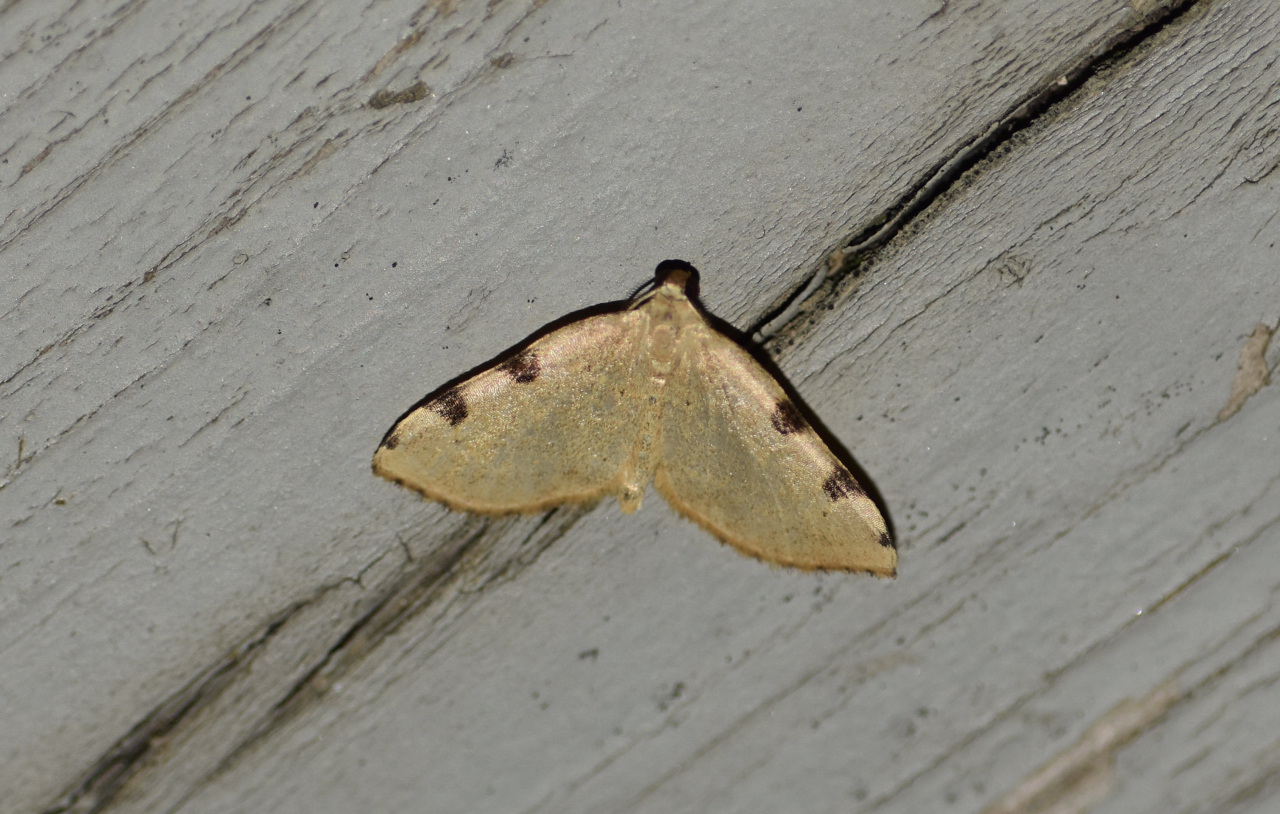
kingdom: Animalia
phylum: Arthropoda
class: Insecta
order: Lepidoptera
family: Geometridae
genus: Heterophleps
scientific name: Heterophleps triguttaria
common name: Three-spotted fillip
